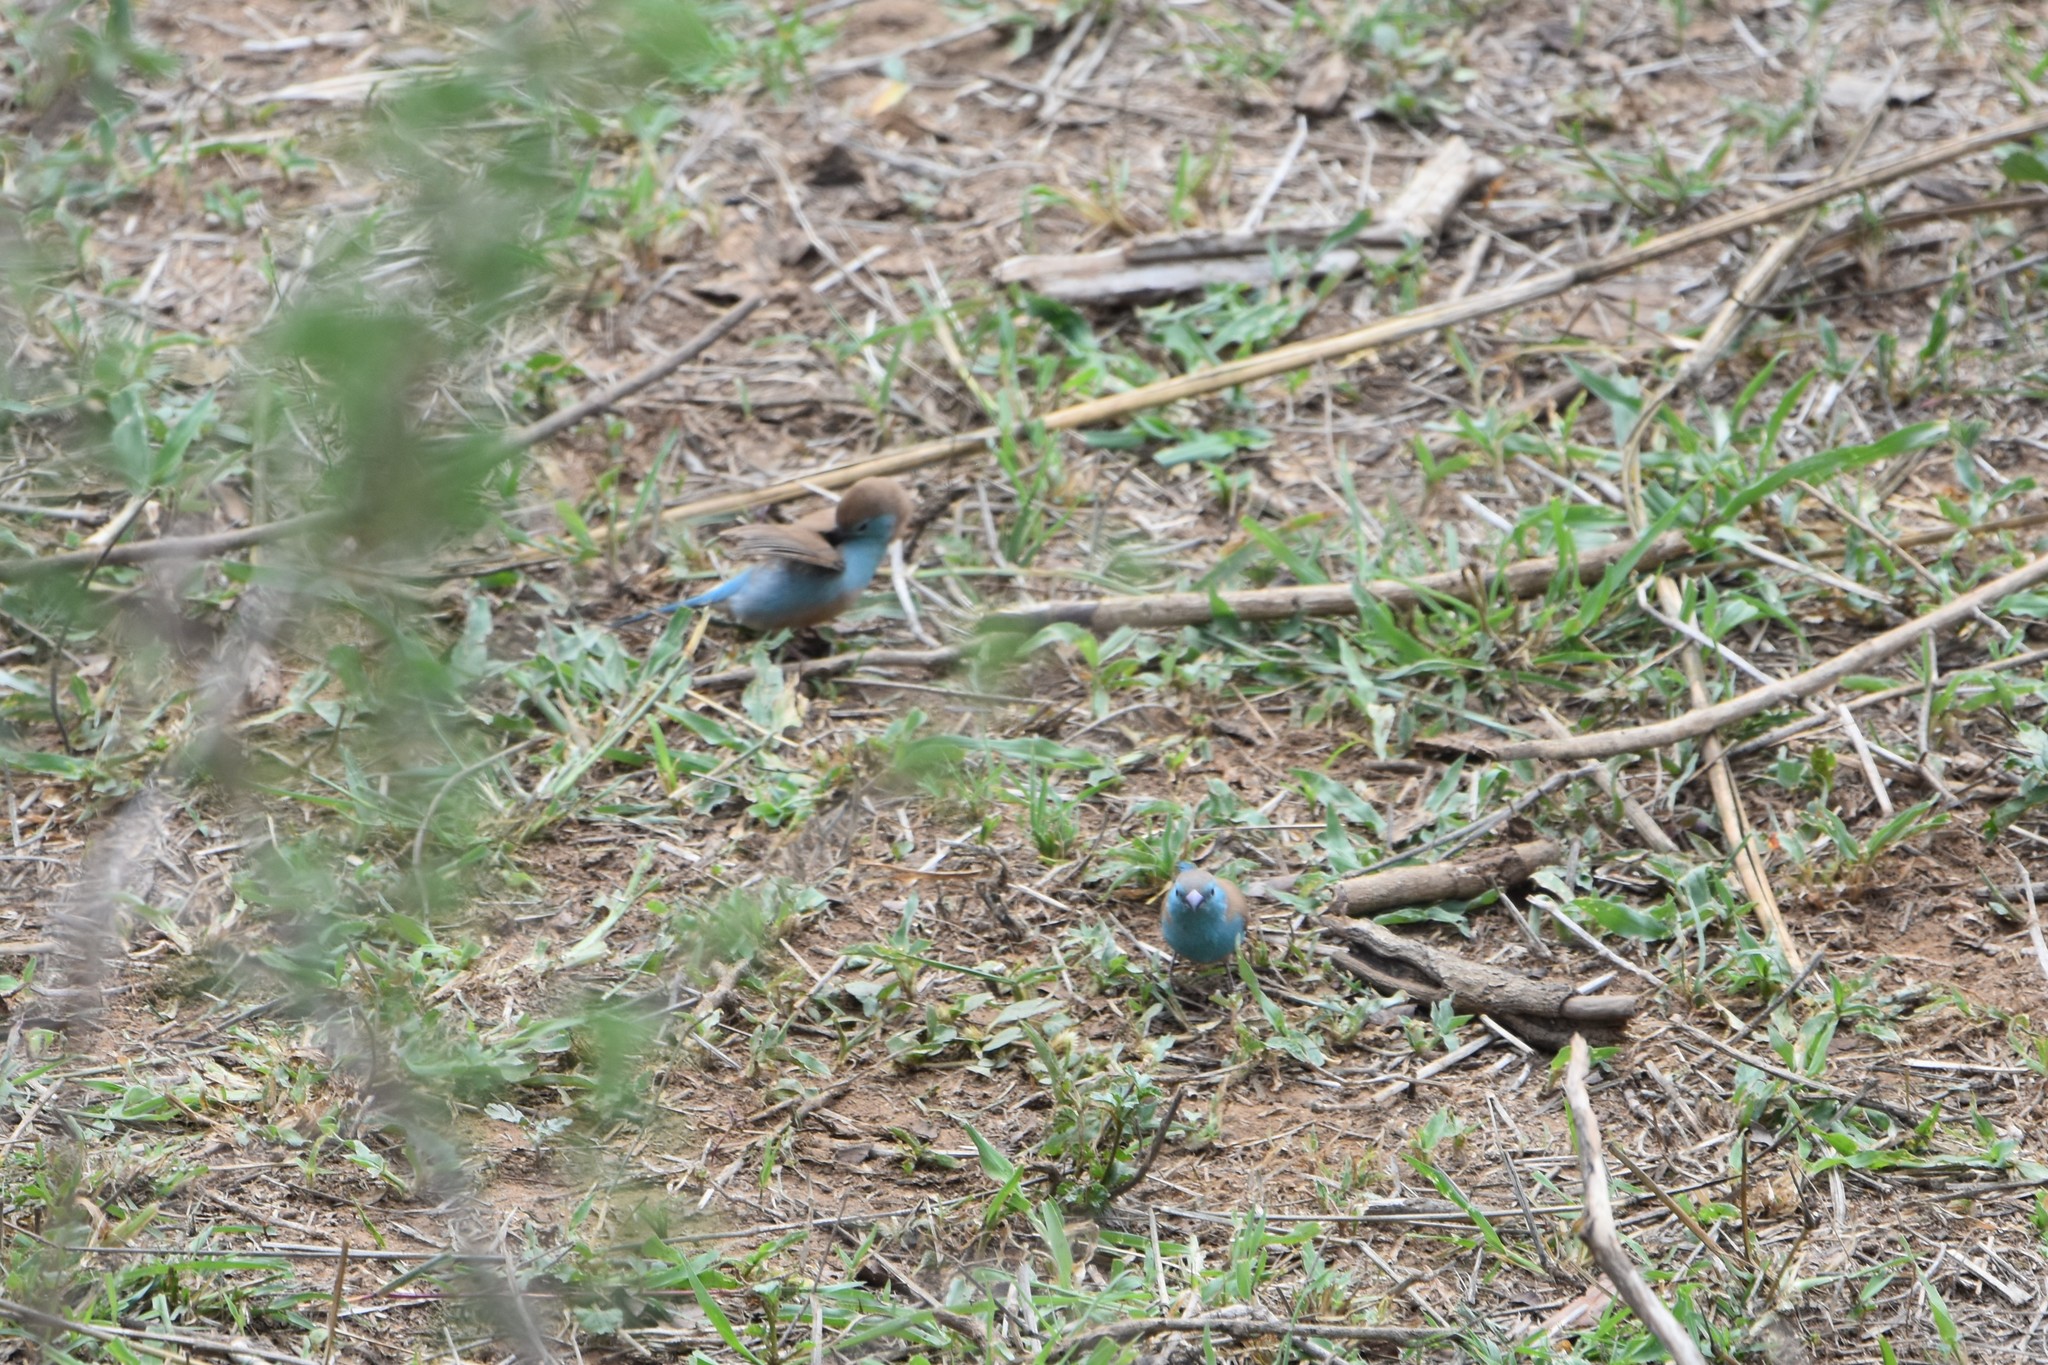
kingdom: Animalia
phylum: Chordata
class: Aves
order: Passeriformes
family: Estrildidae
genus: Uraeginthus
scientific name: Uraeginthus angolensis
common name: Blue waxbill
